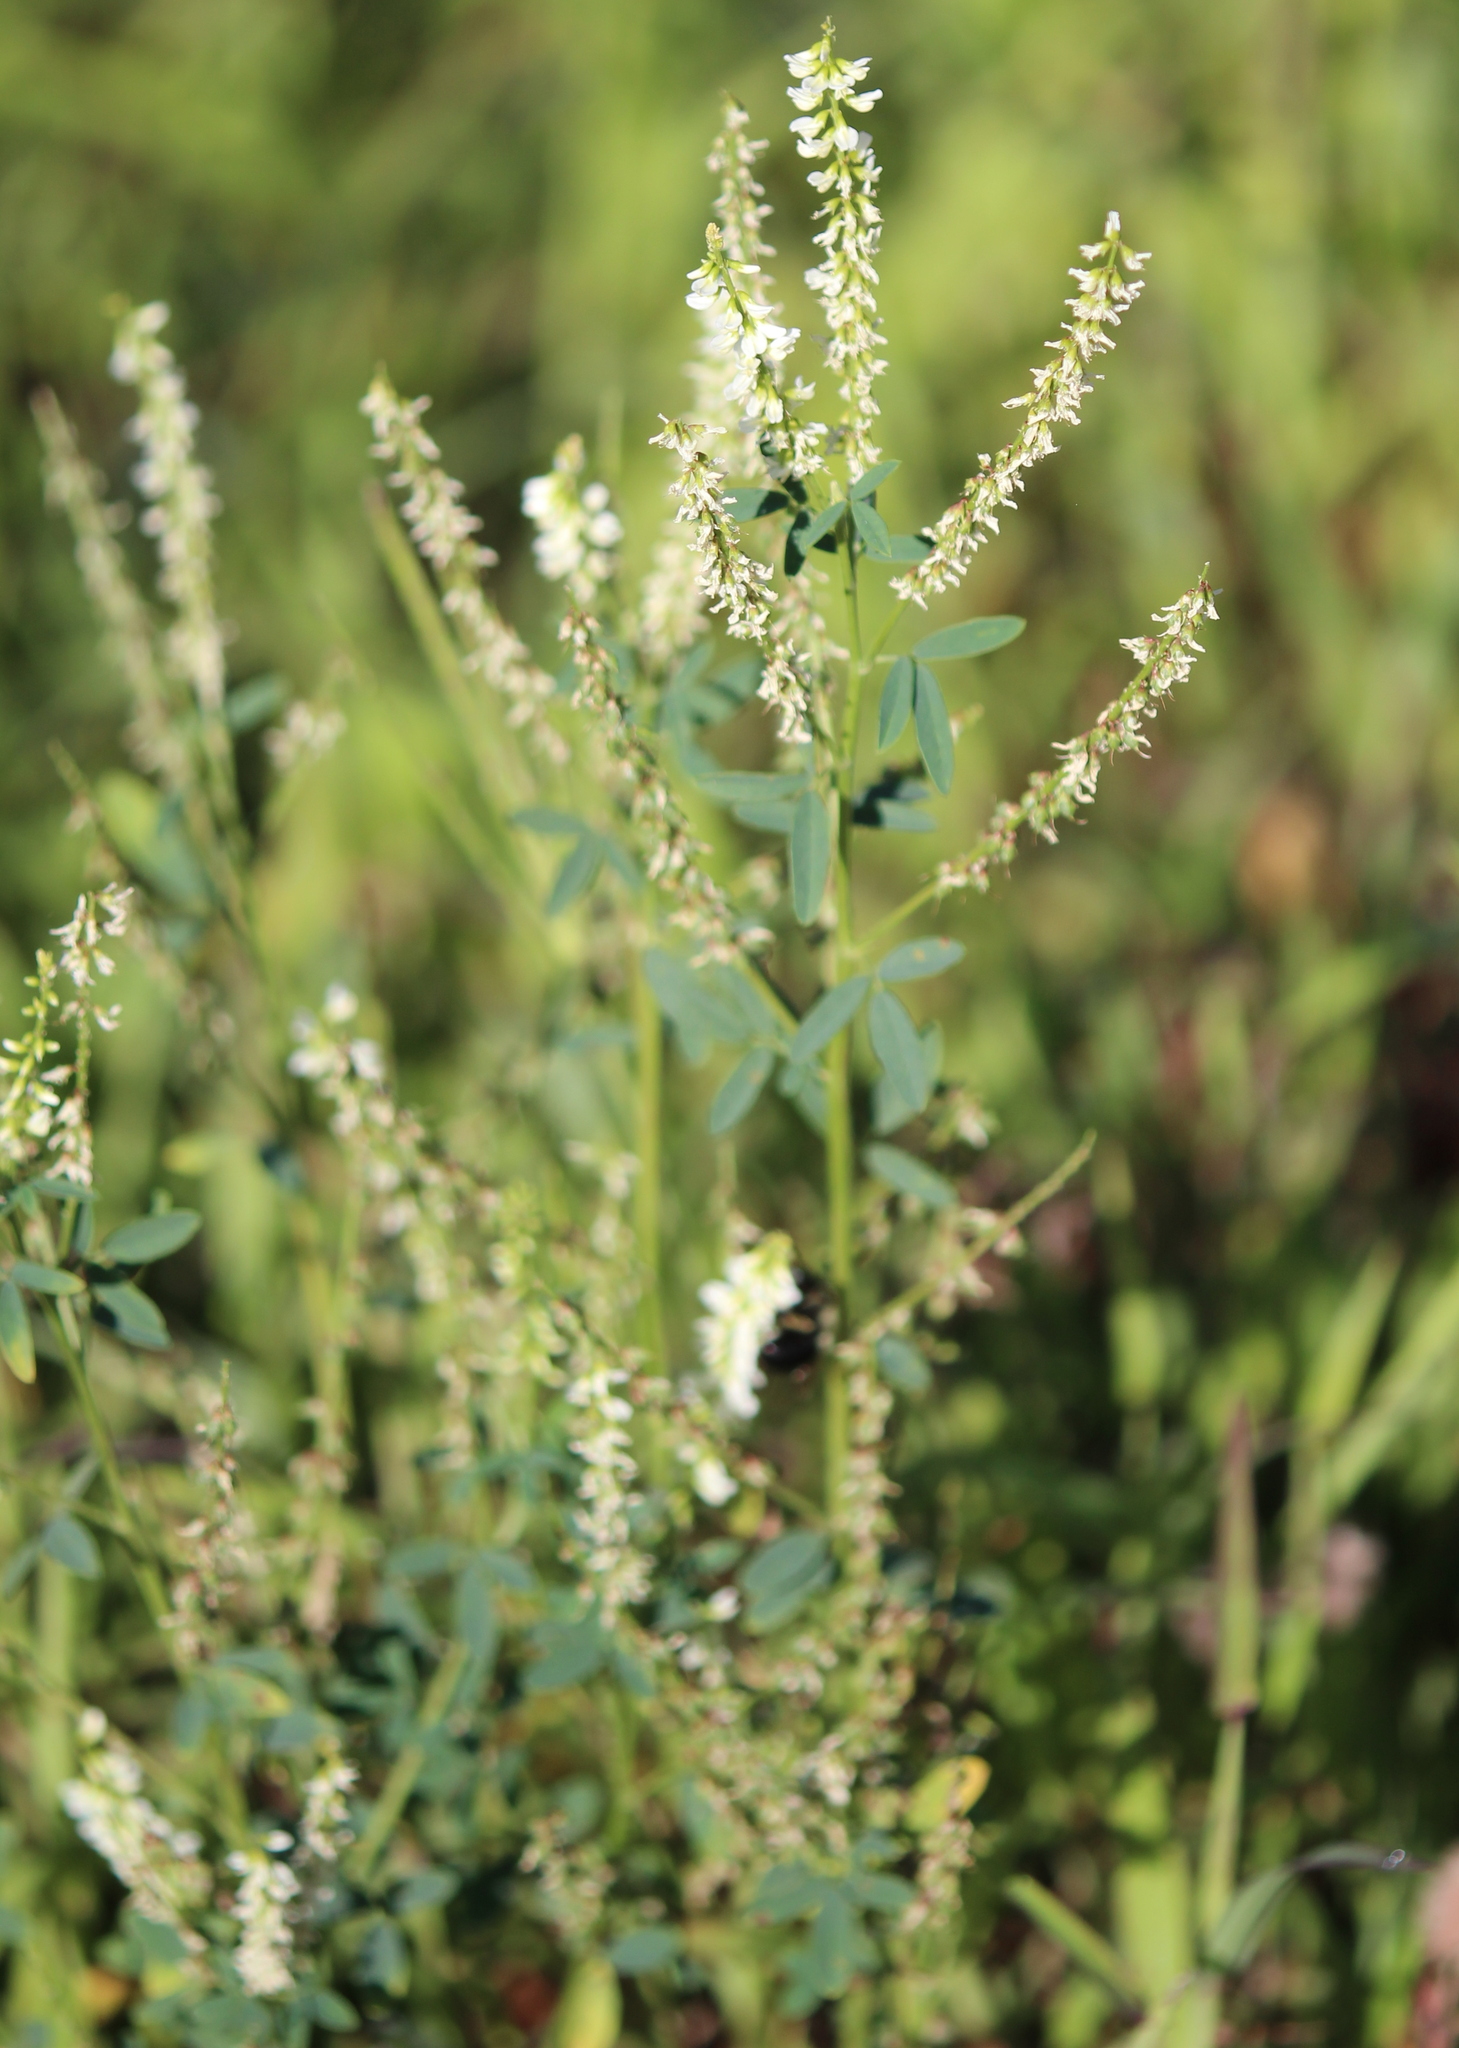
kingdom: Plantae
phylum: Tracheophyta
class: Magnoliopsida
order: Fabales
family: Fabaceae
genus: Melilotus
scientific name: Melilotus albus
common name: White melilot
